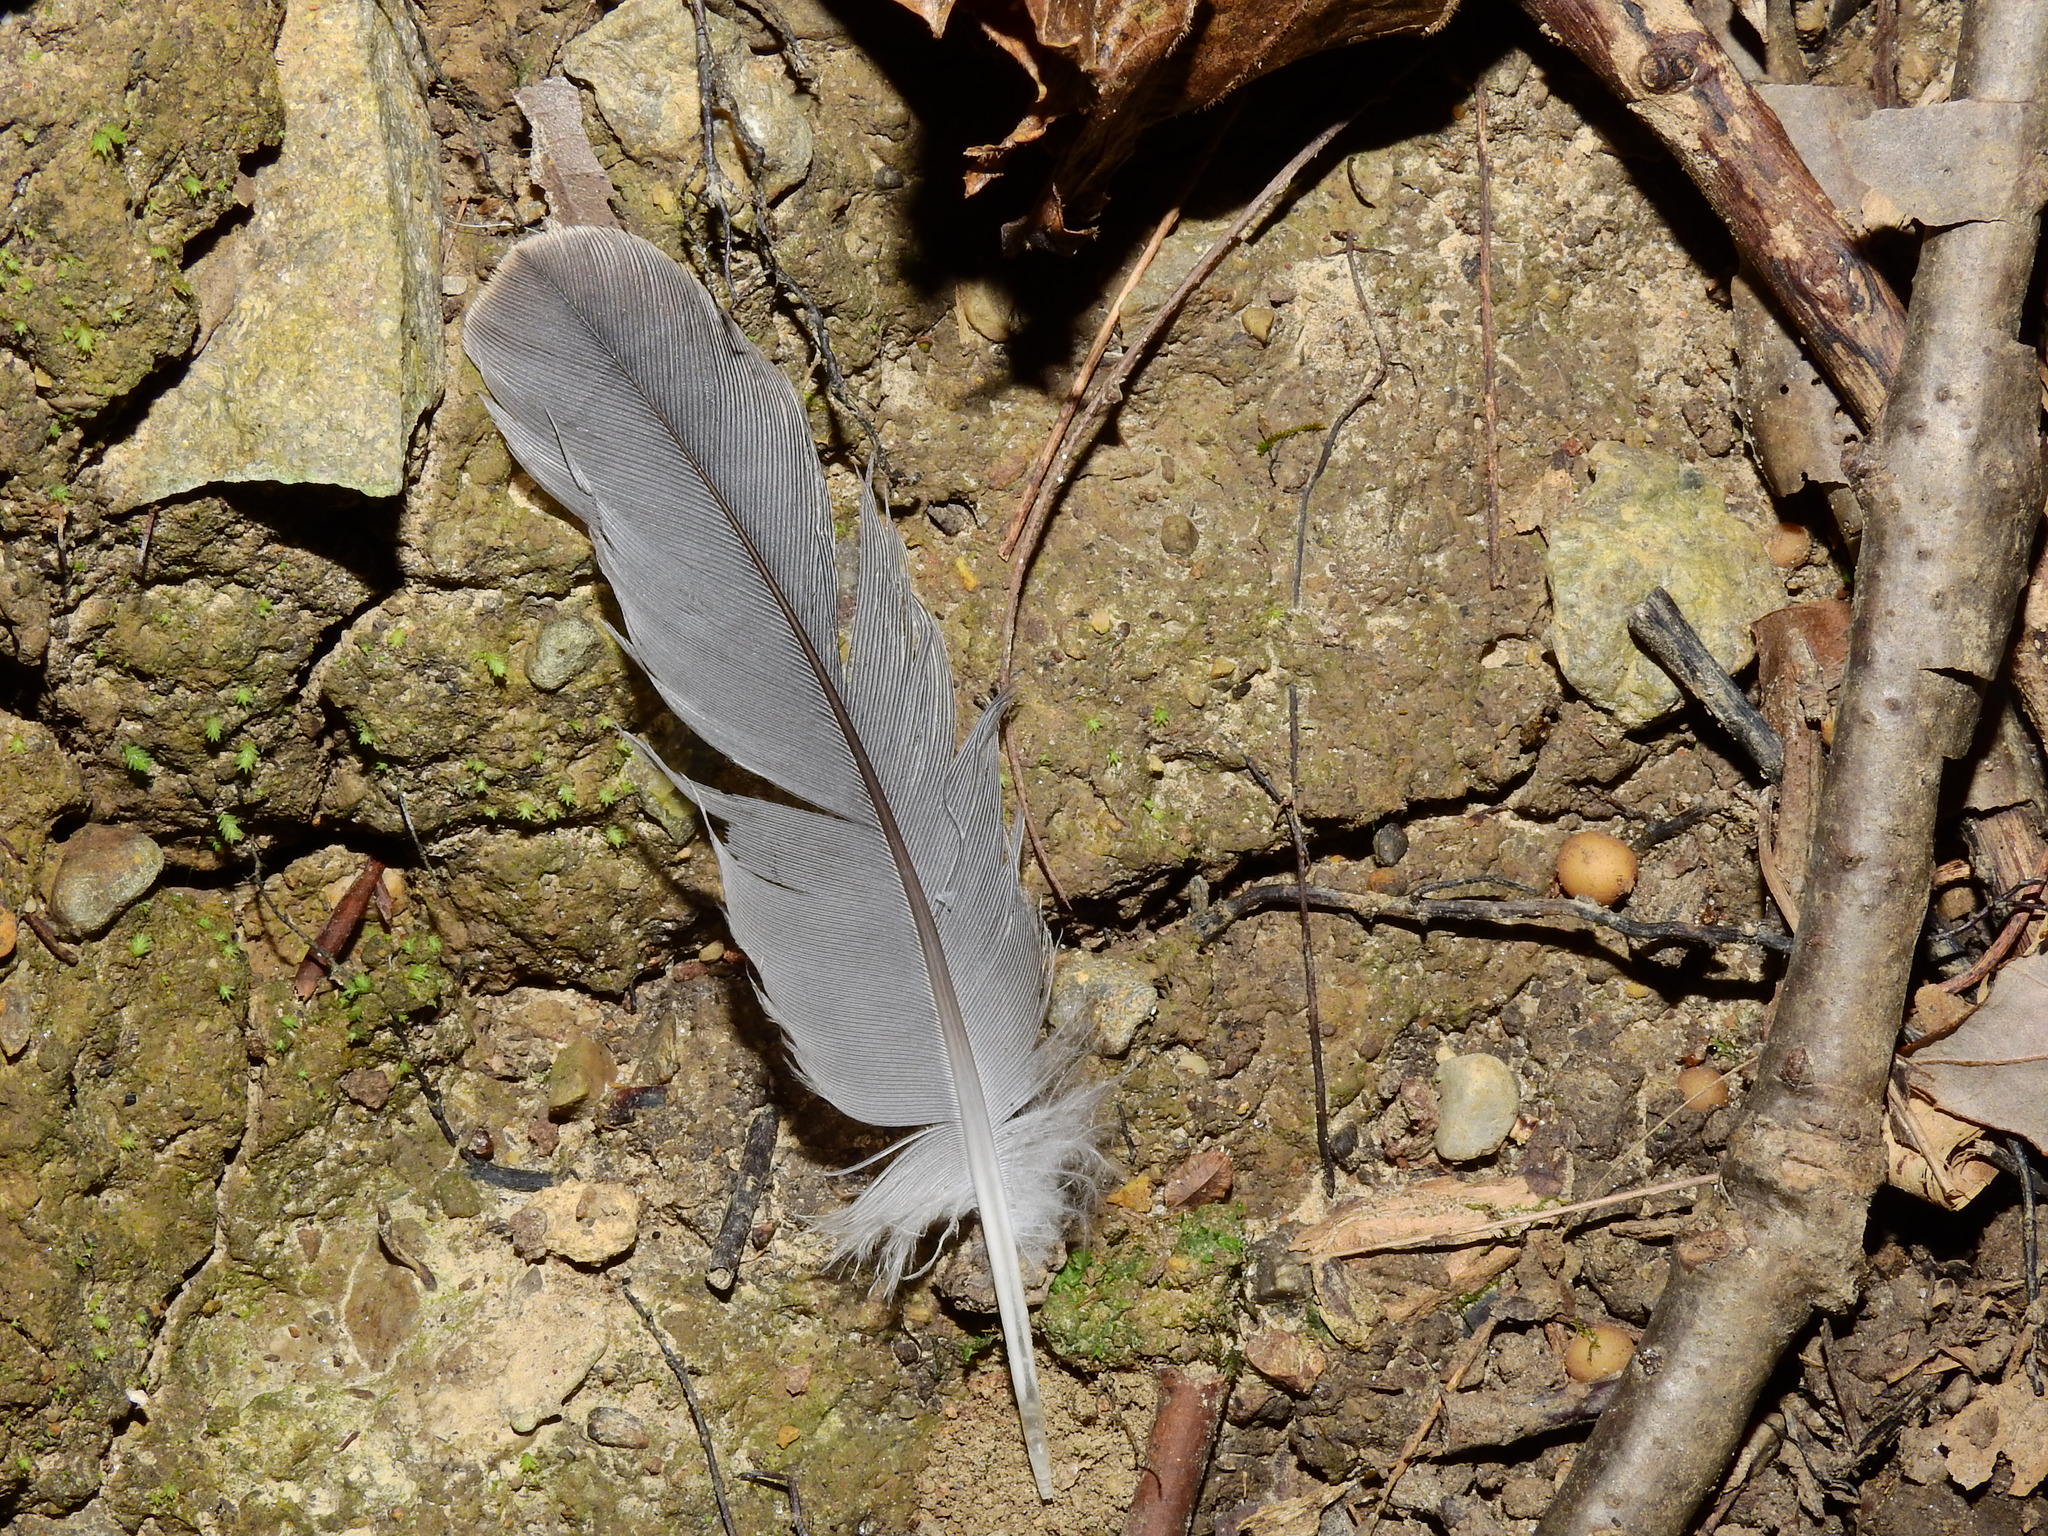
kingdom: Animalia
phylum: Chordata
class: Aves
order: Columbiformes
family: Columbidae
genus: Zenaida
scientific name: Zenaida macroura
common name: Mourning dove
